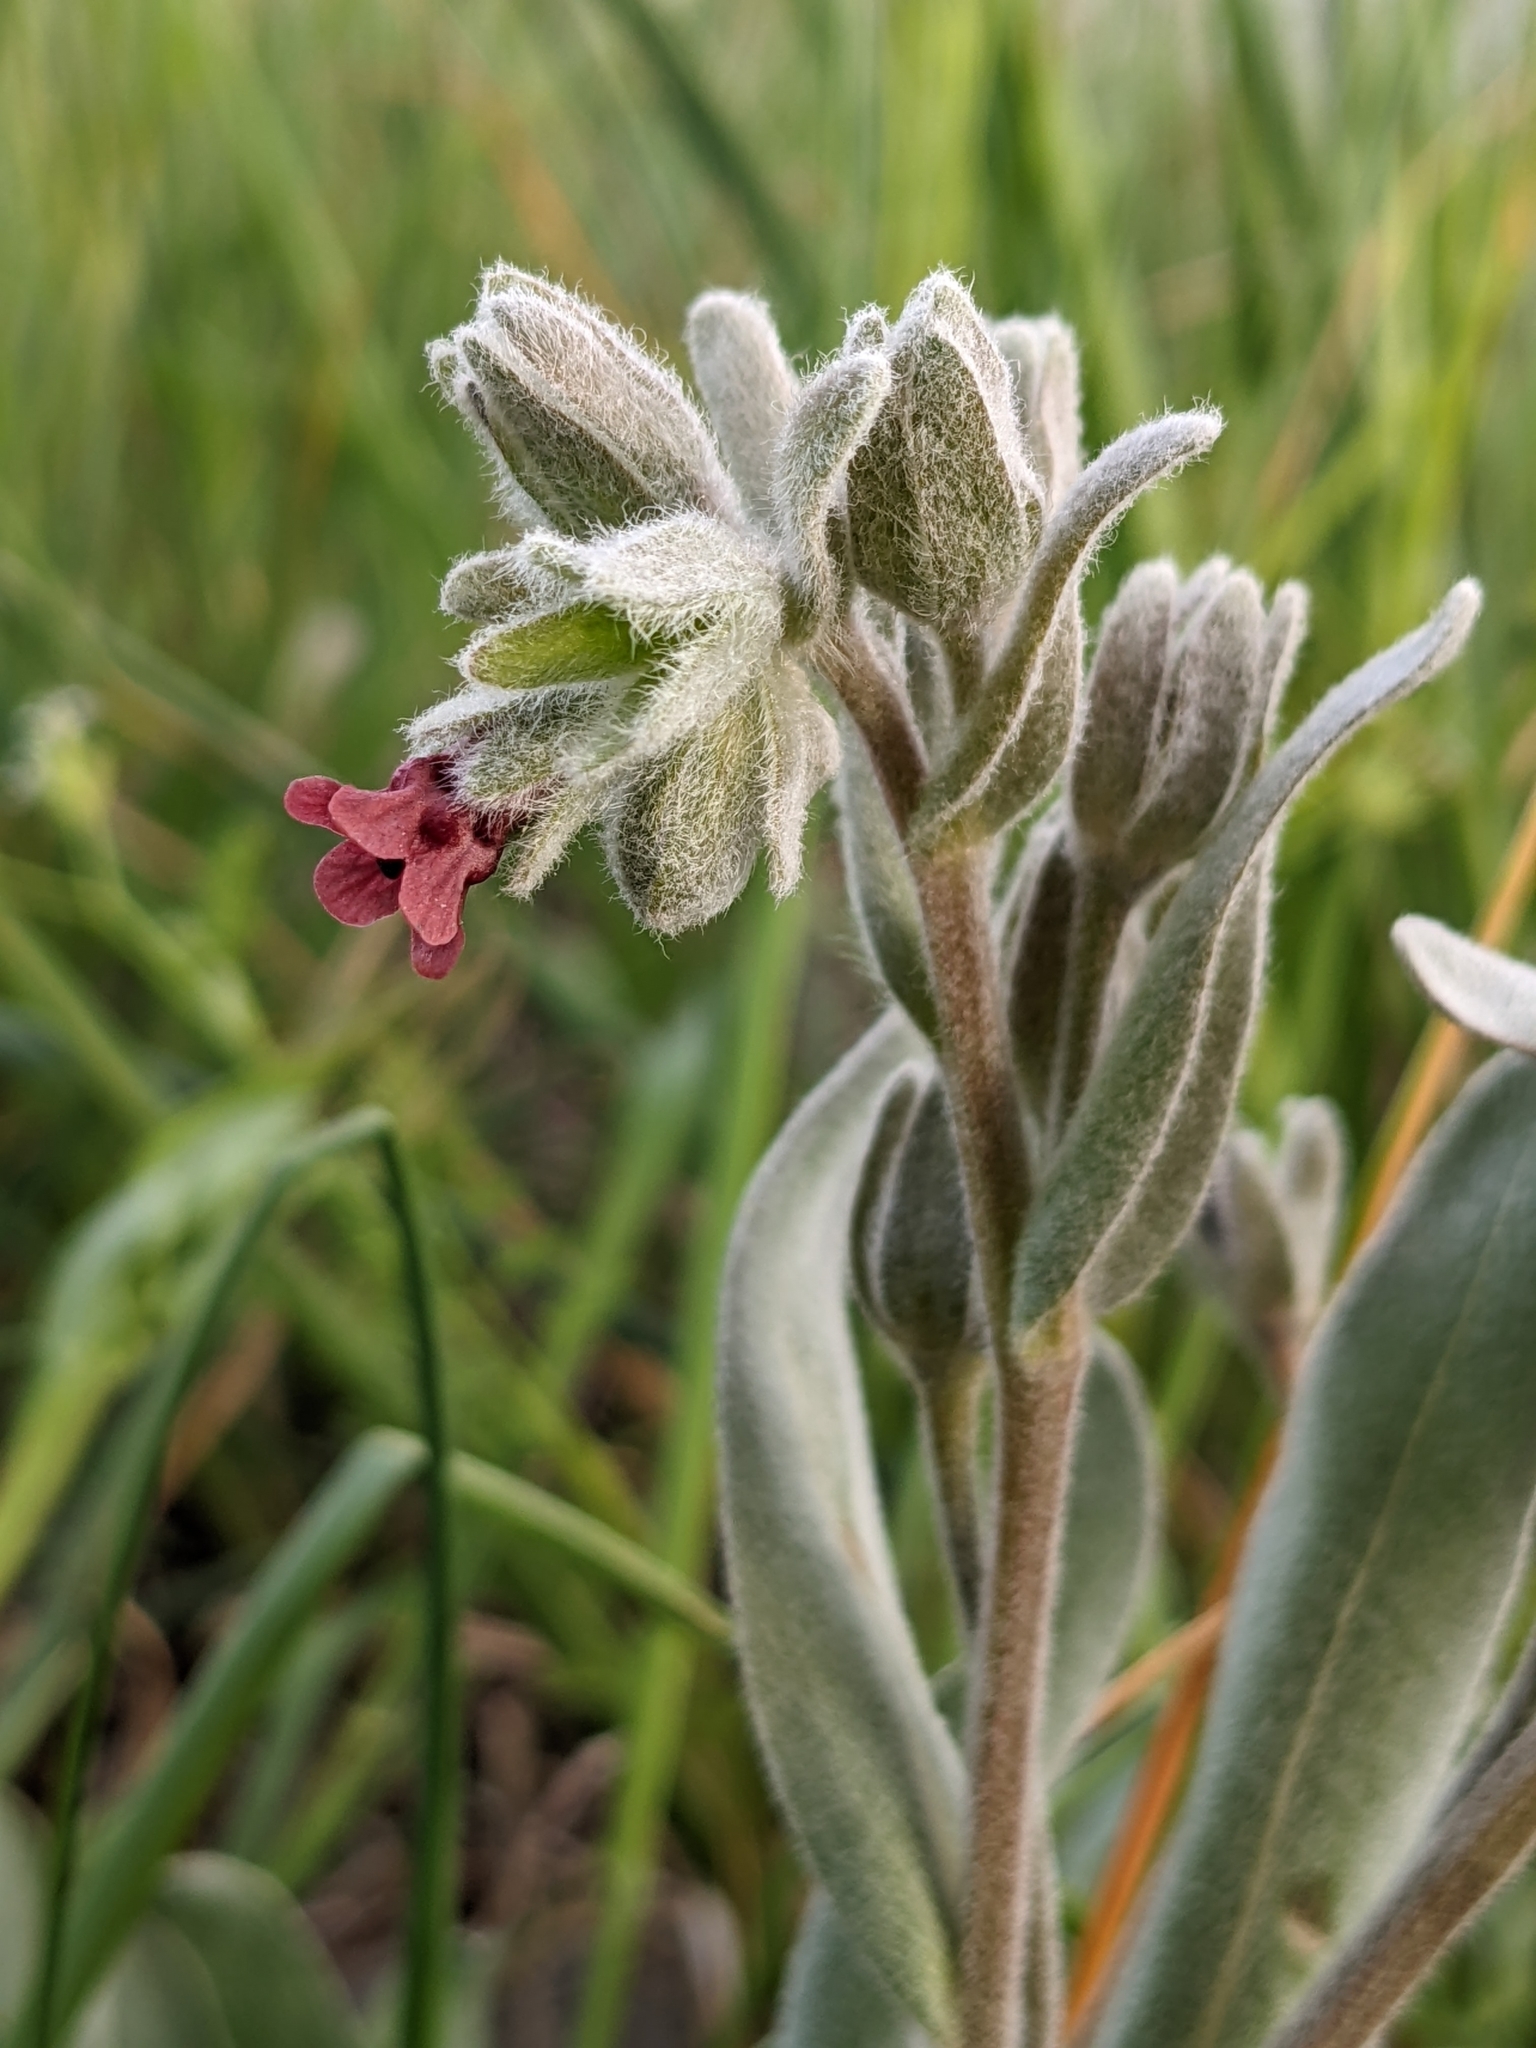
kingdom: Plantae
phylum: Tracheophyta
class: Magnoliopsida
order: Boraginales
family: Boraginaceae
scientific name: Boraginaceae
